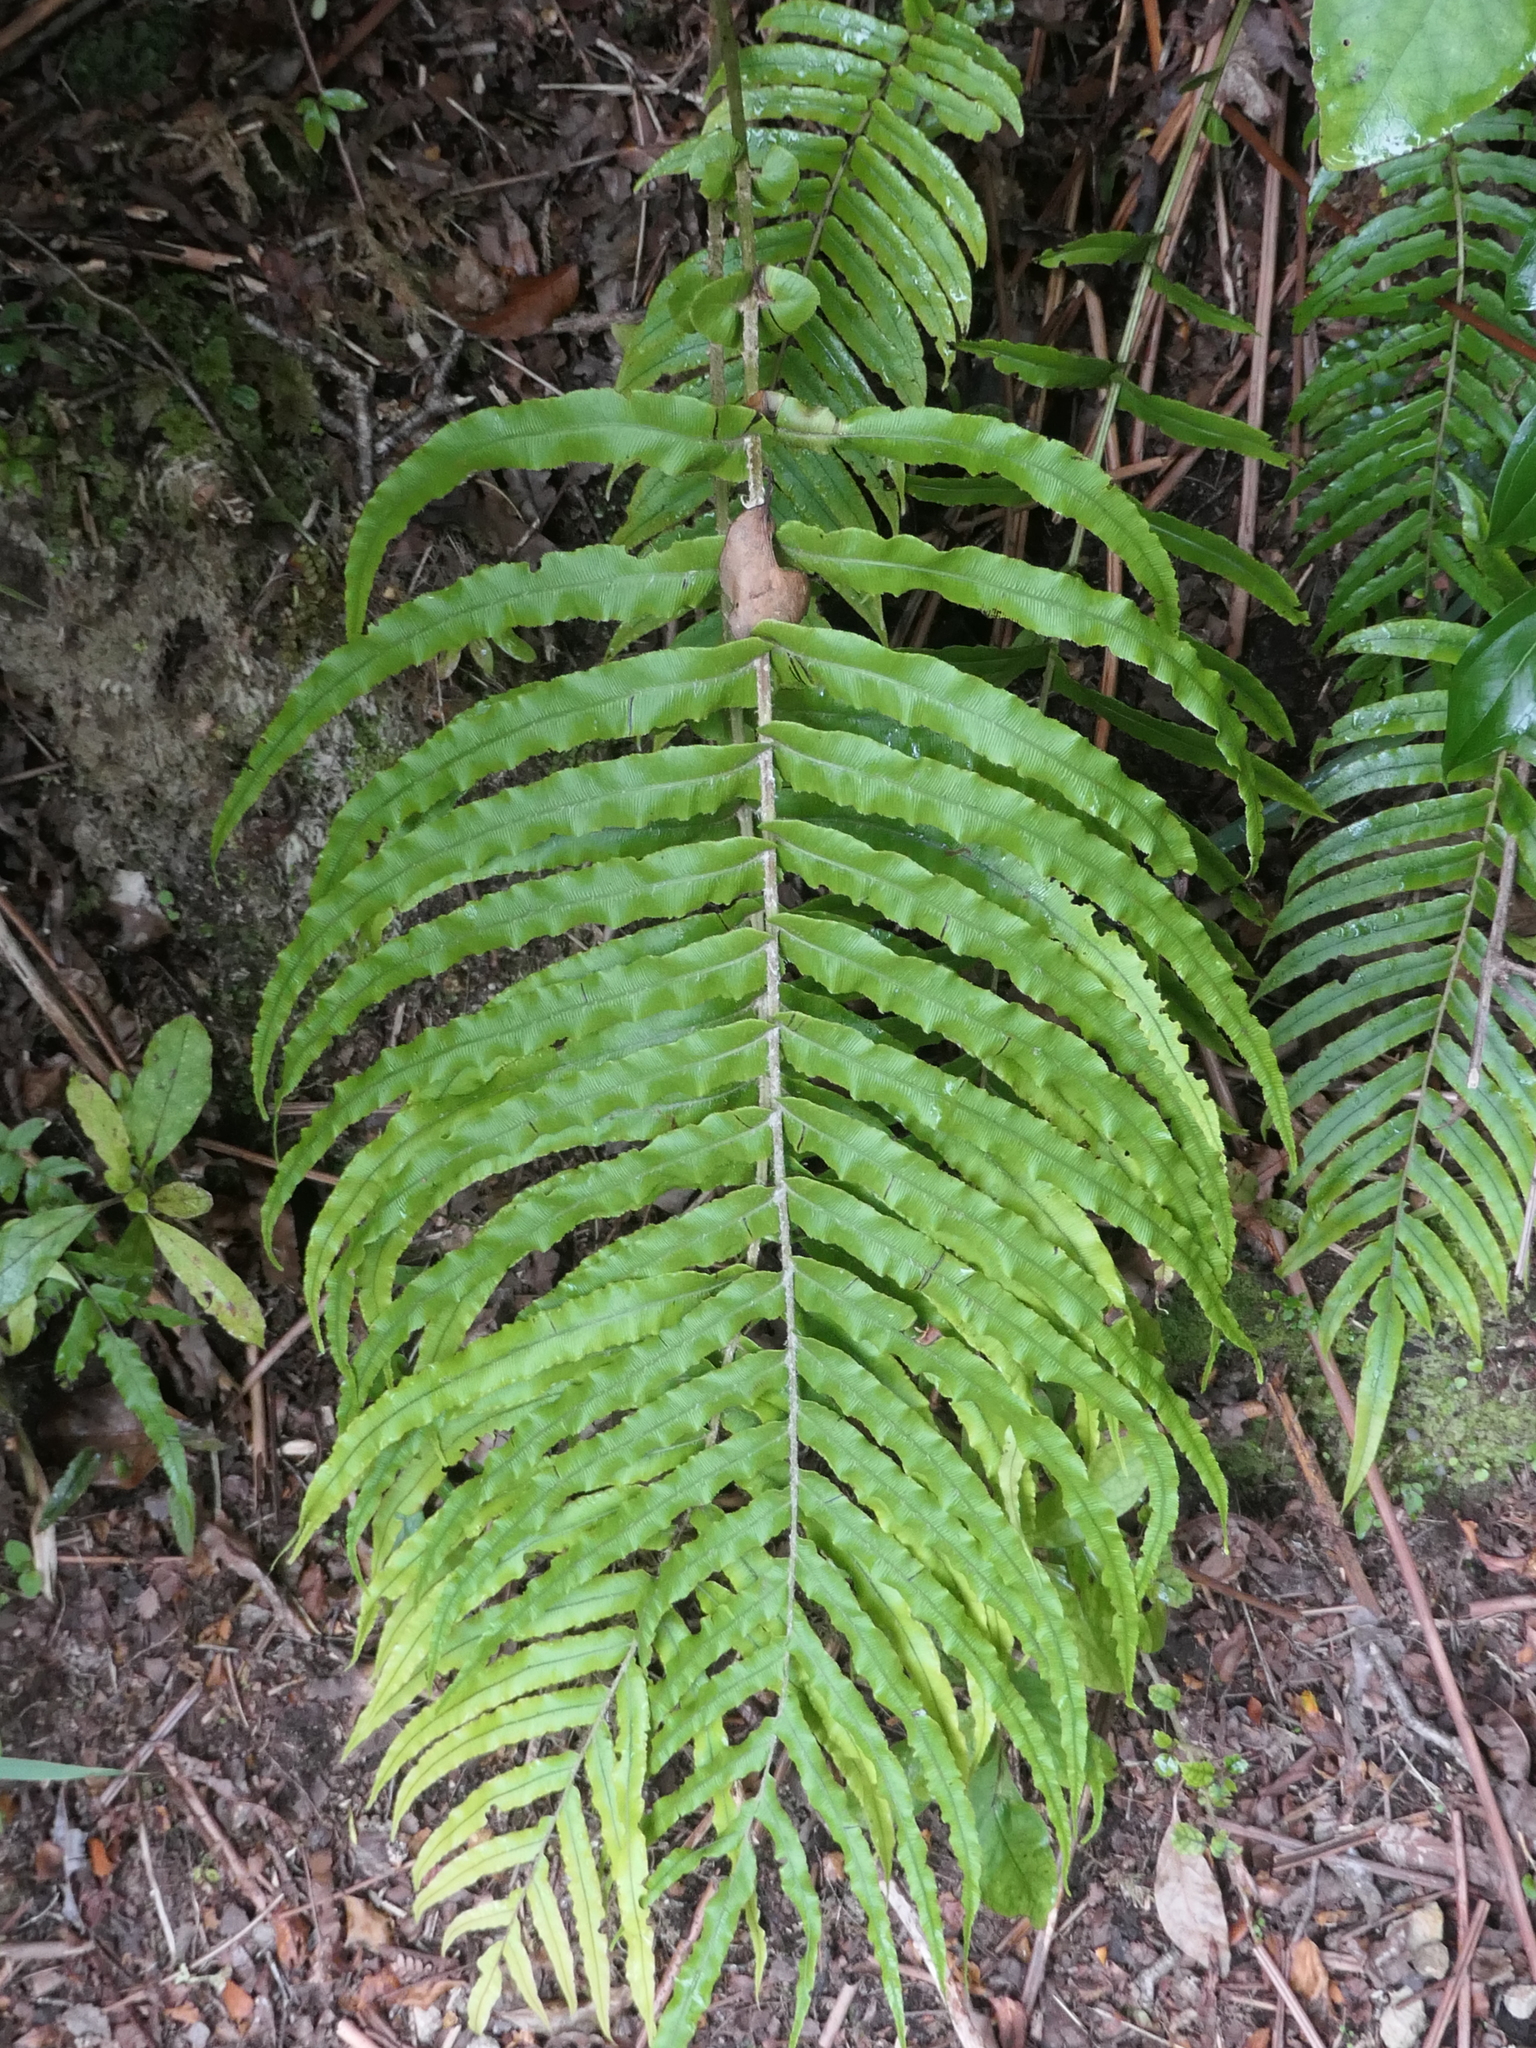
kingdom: Plantae
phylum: Tracheophyta
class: Polypodiopsida
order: Polypodiales
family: Blechnaceae
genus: Parablechnum
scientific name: Parablechnum novae-zelandiae
